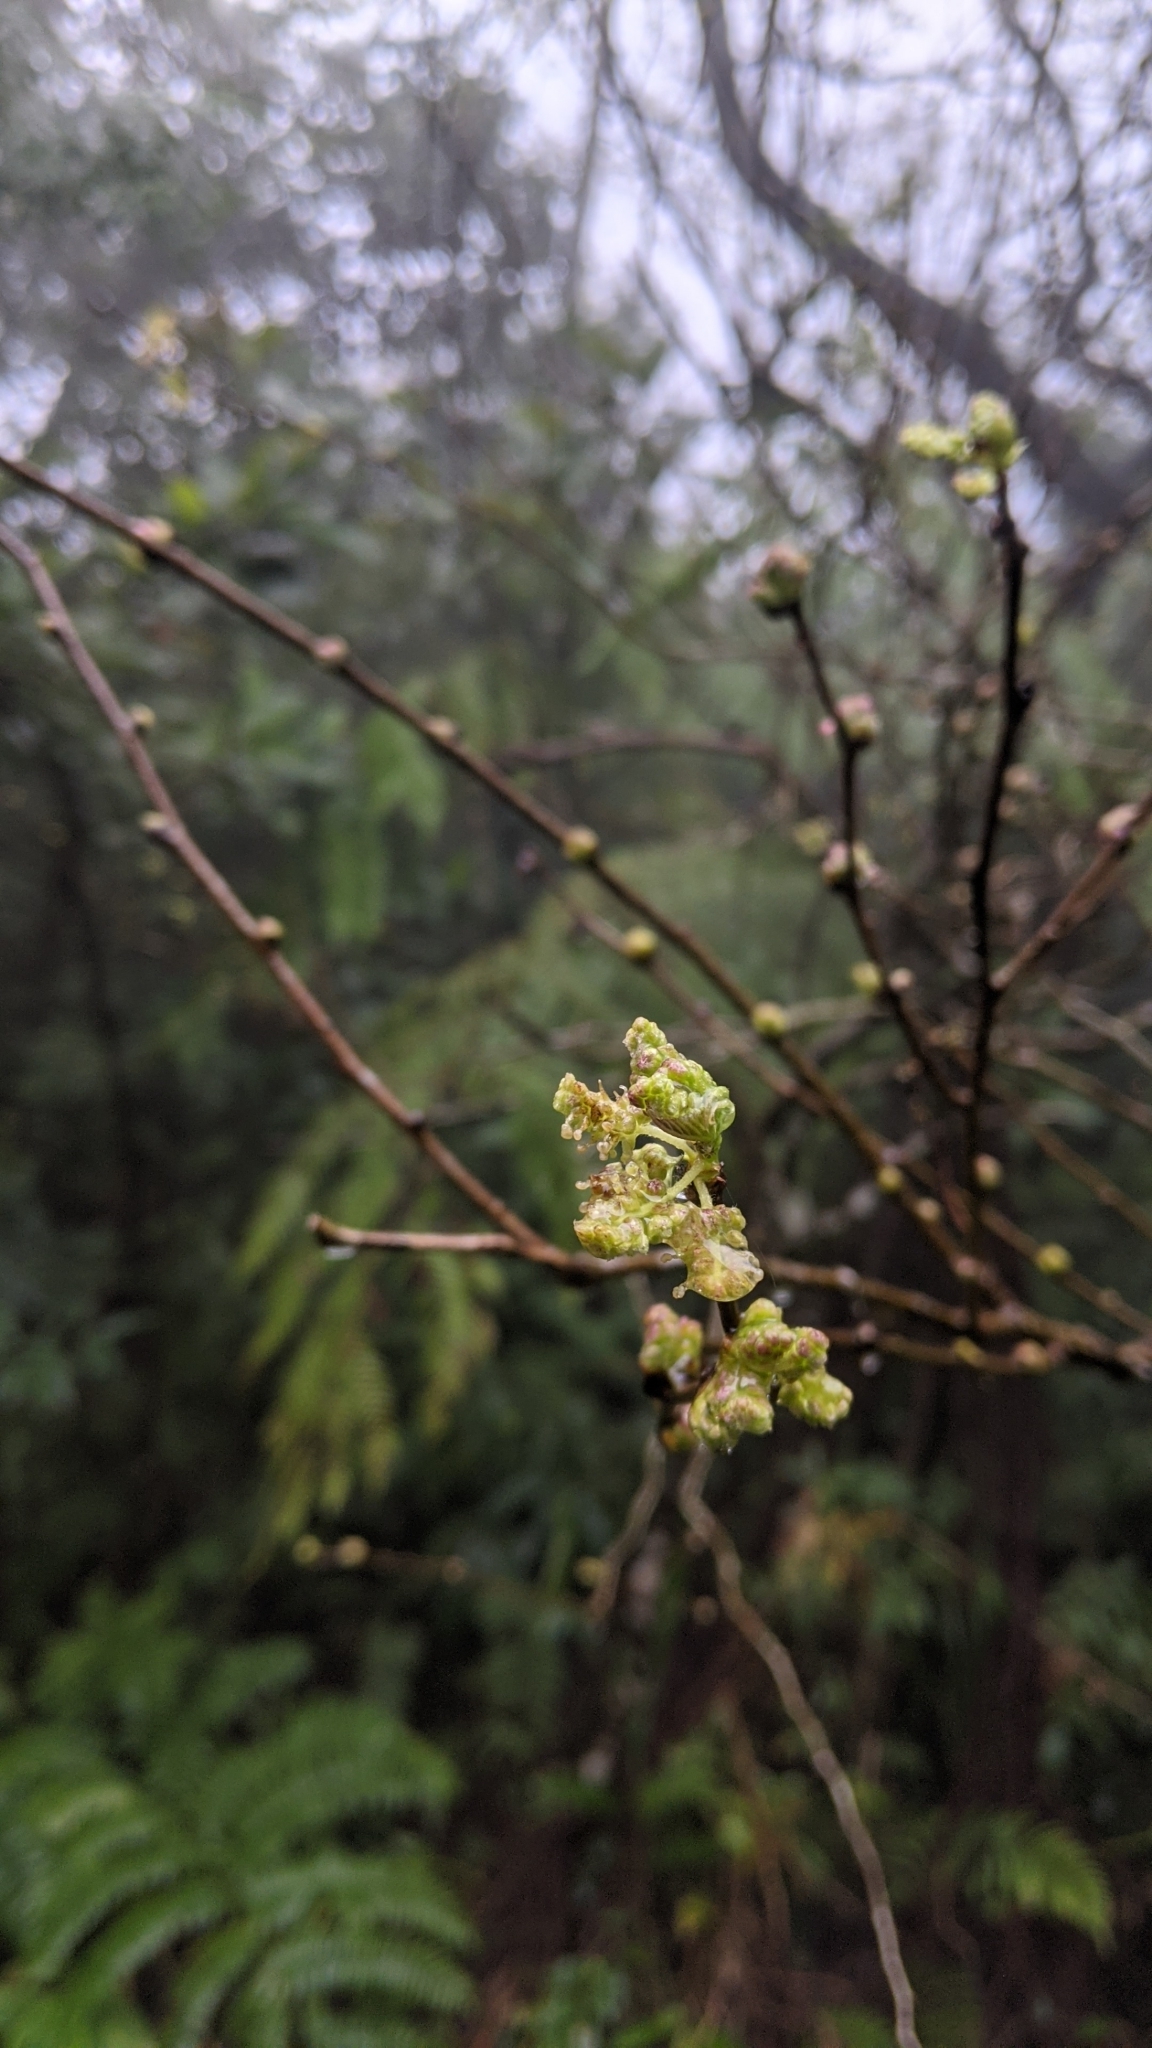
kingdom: Plantae
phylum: Tracheophyta
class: Magnoliopsida
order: Rosales
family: Moraceae
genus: Morus
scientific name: Morus indica
